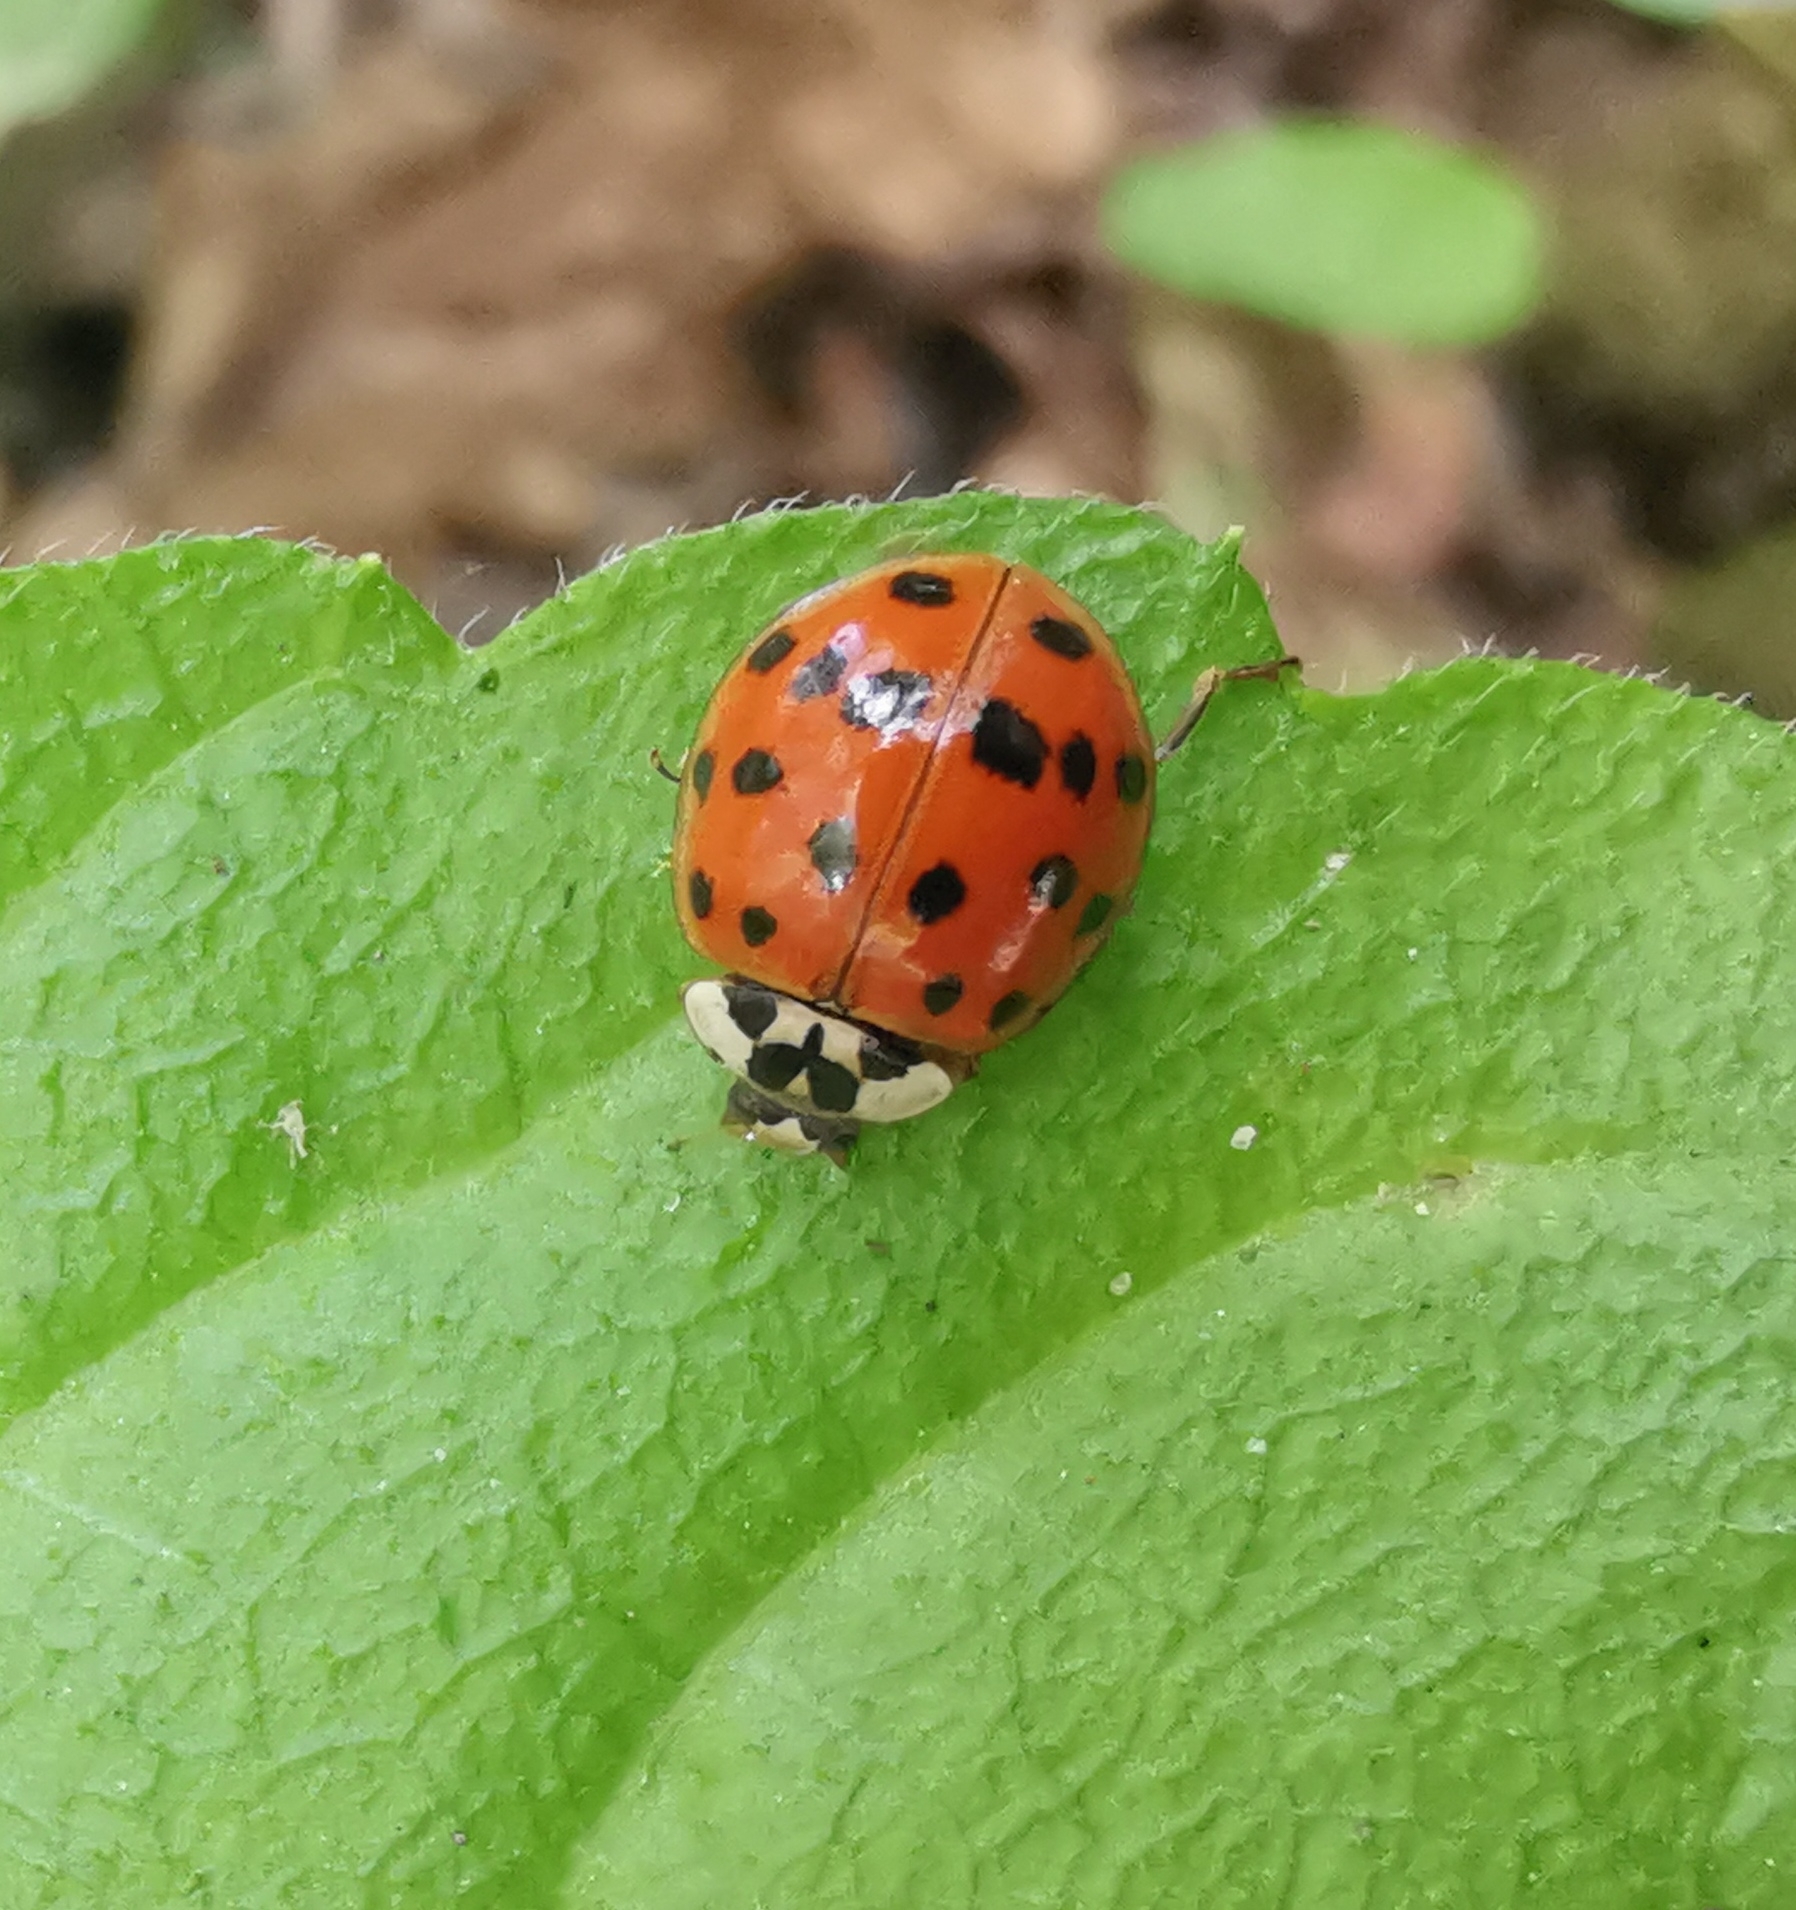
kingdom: Animalia
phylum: Arthropoda
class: Insecta
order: Coleoptera
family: Coccinellidae
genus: Harmonia
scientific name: Harmonia axyridis
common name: Harlequin ladybird
